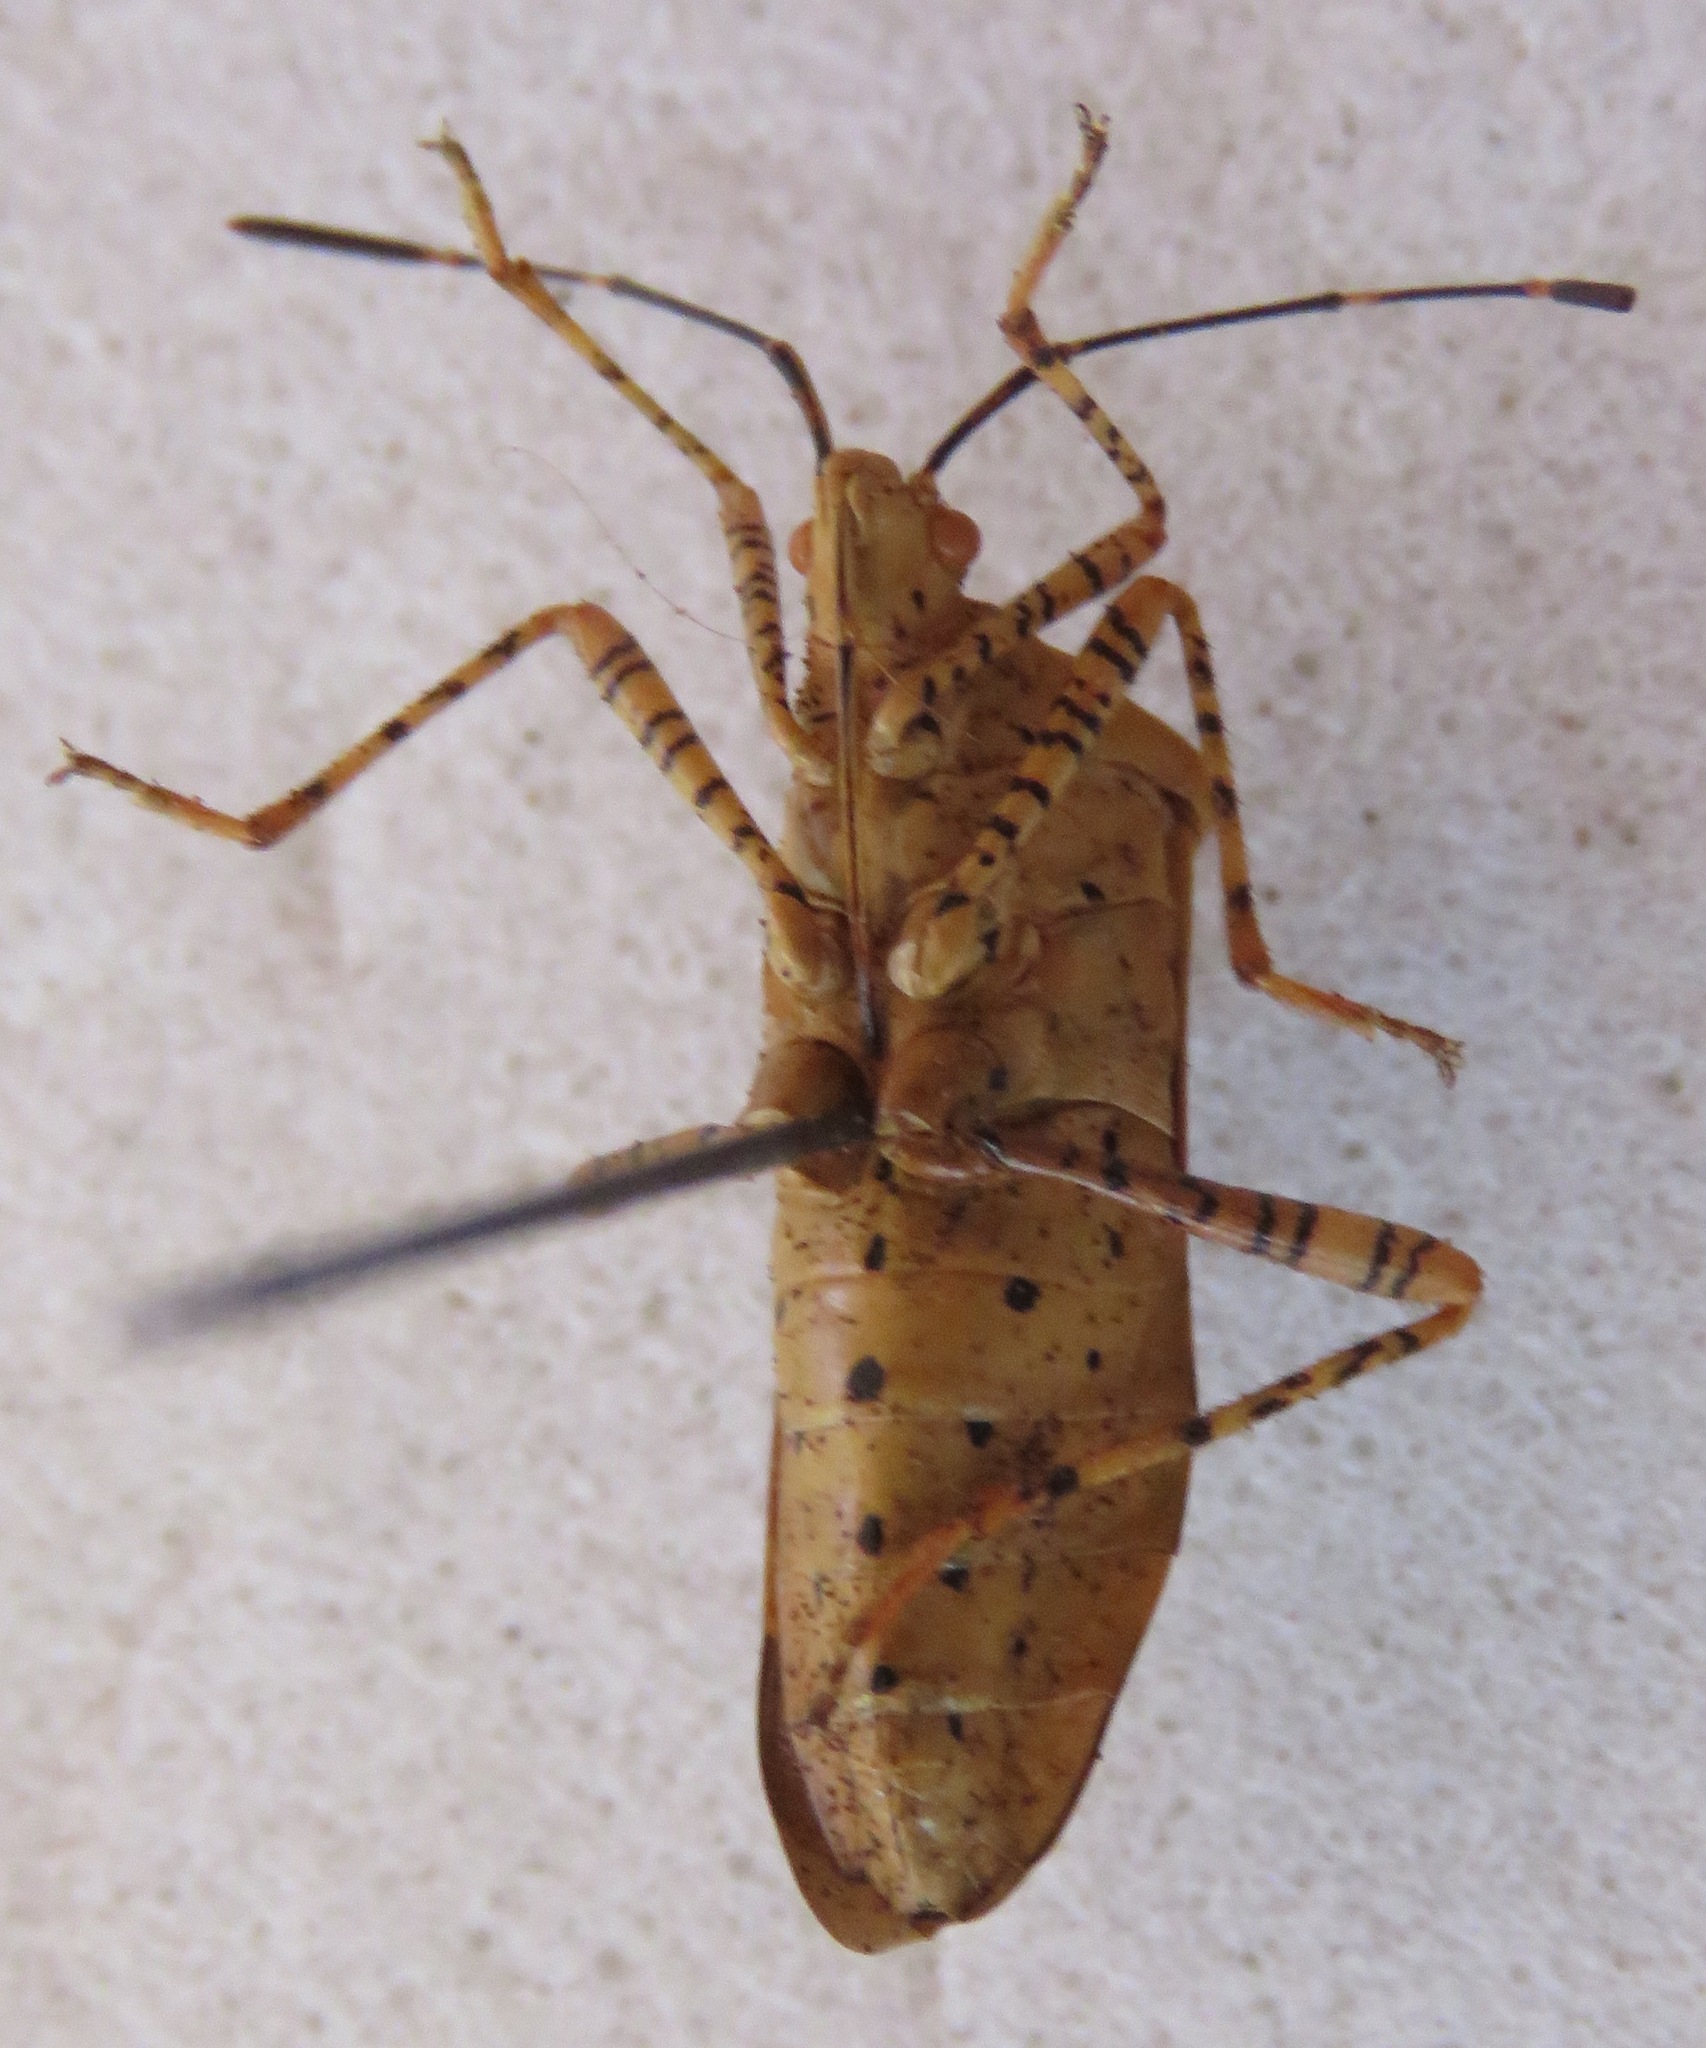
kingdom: Animalia
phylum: Arthropoda
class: Insecta
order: Hemiptera
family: Coreidae
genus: Hypselonotus
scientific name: Hypselonotus punctiventris
